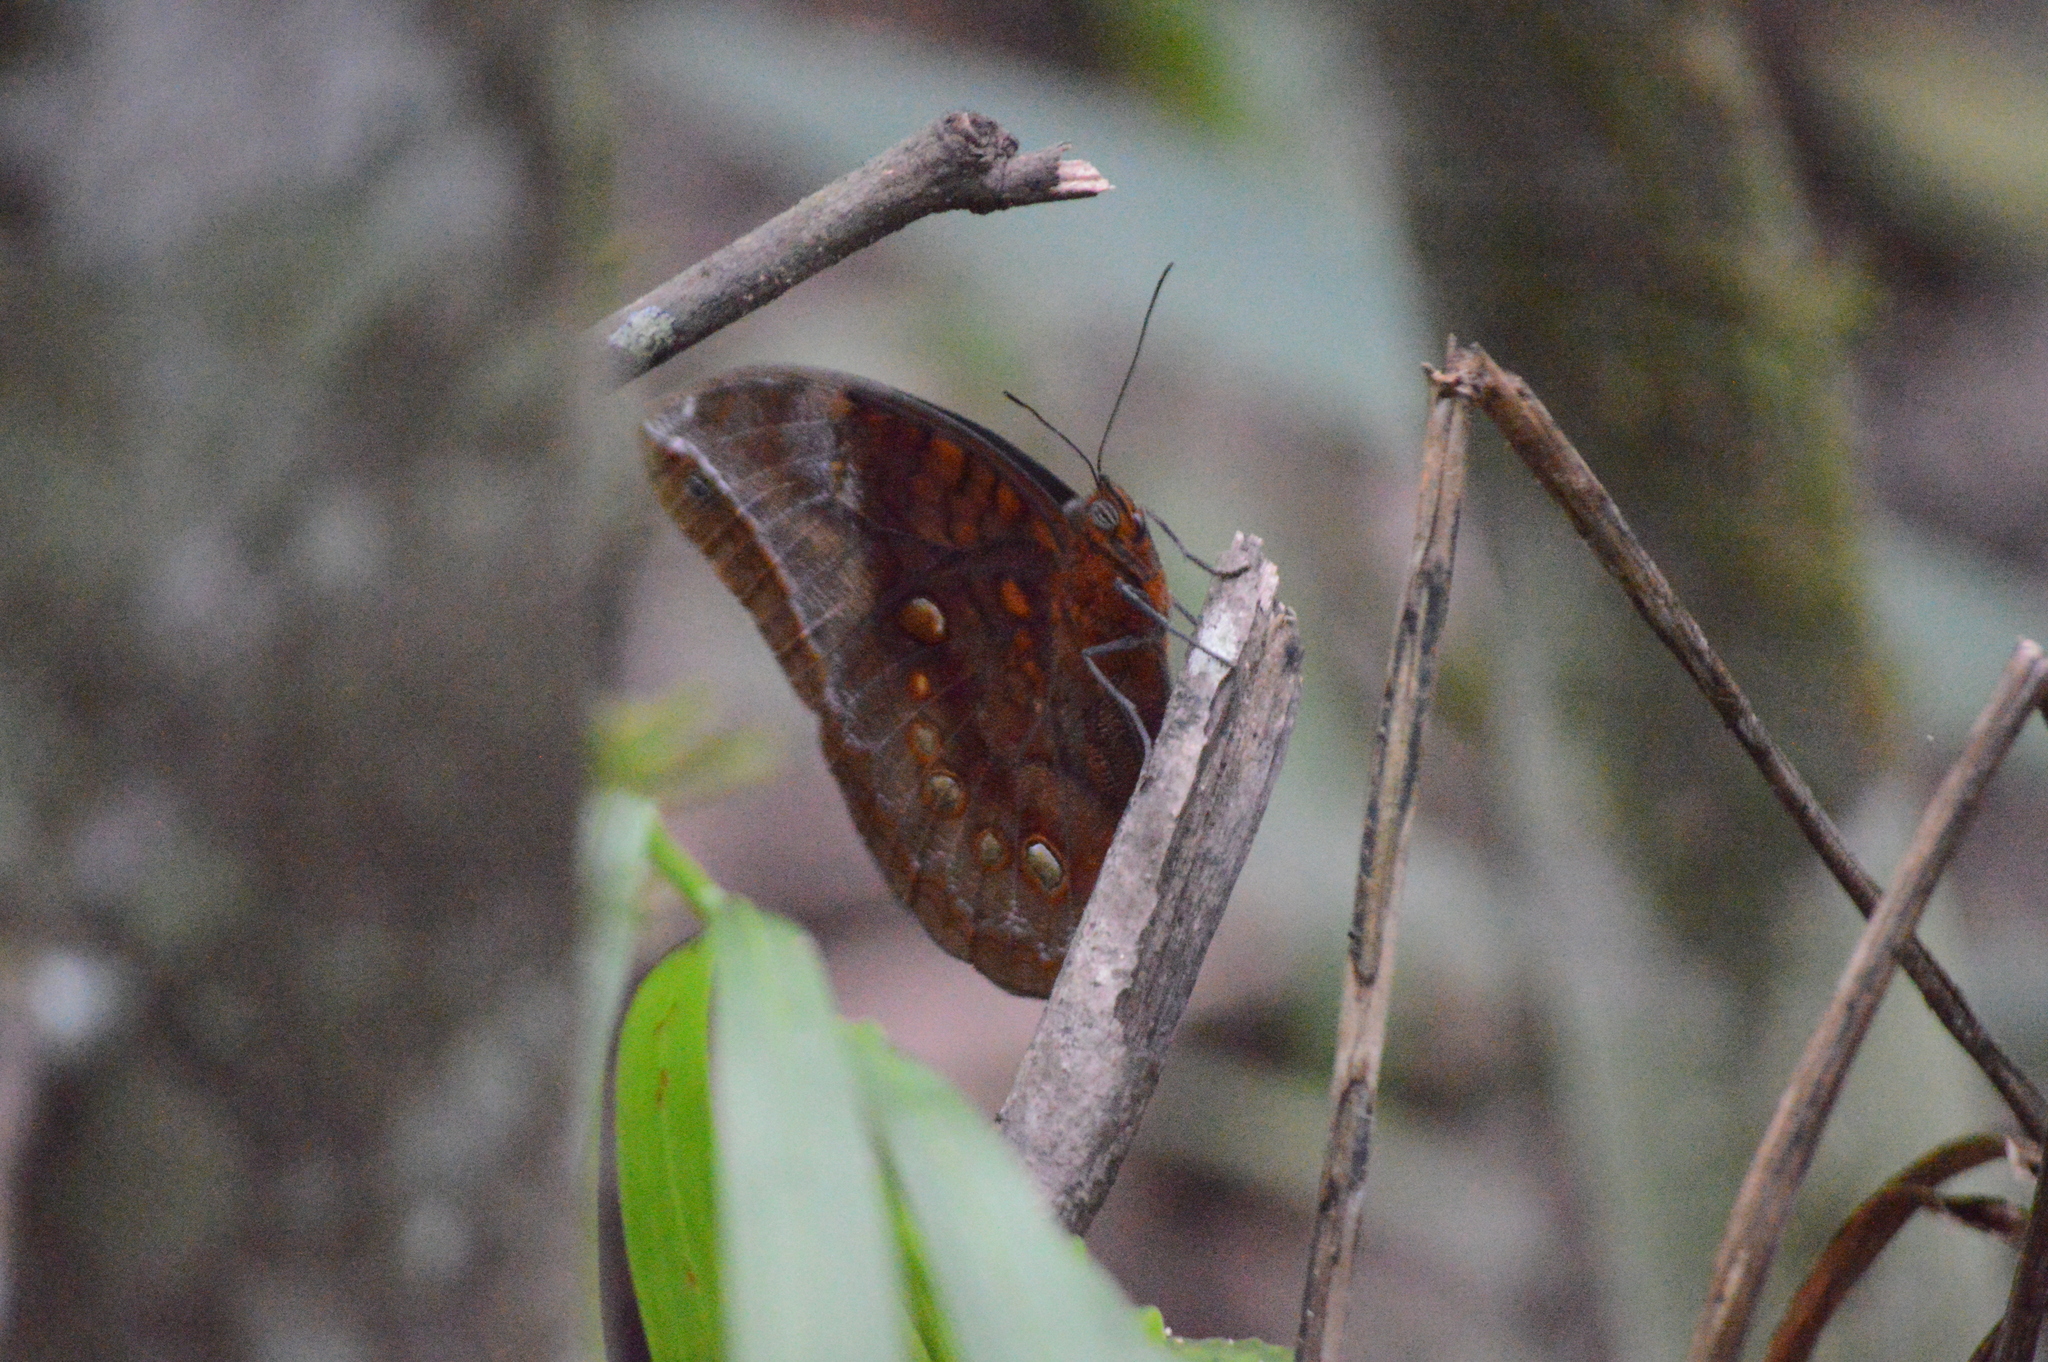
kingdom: Animalia
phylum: Arthropoda
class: Insecta
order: Lepidoptera
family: Nymphalidae
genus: Catoblepia
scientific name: Catoblepia berecynthia
